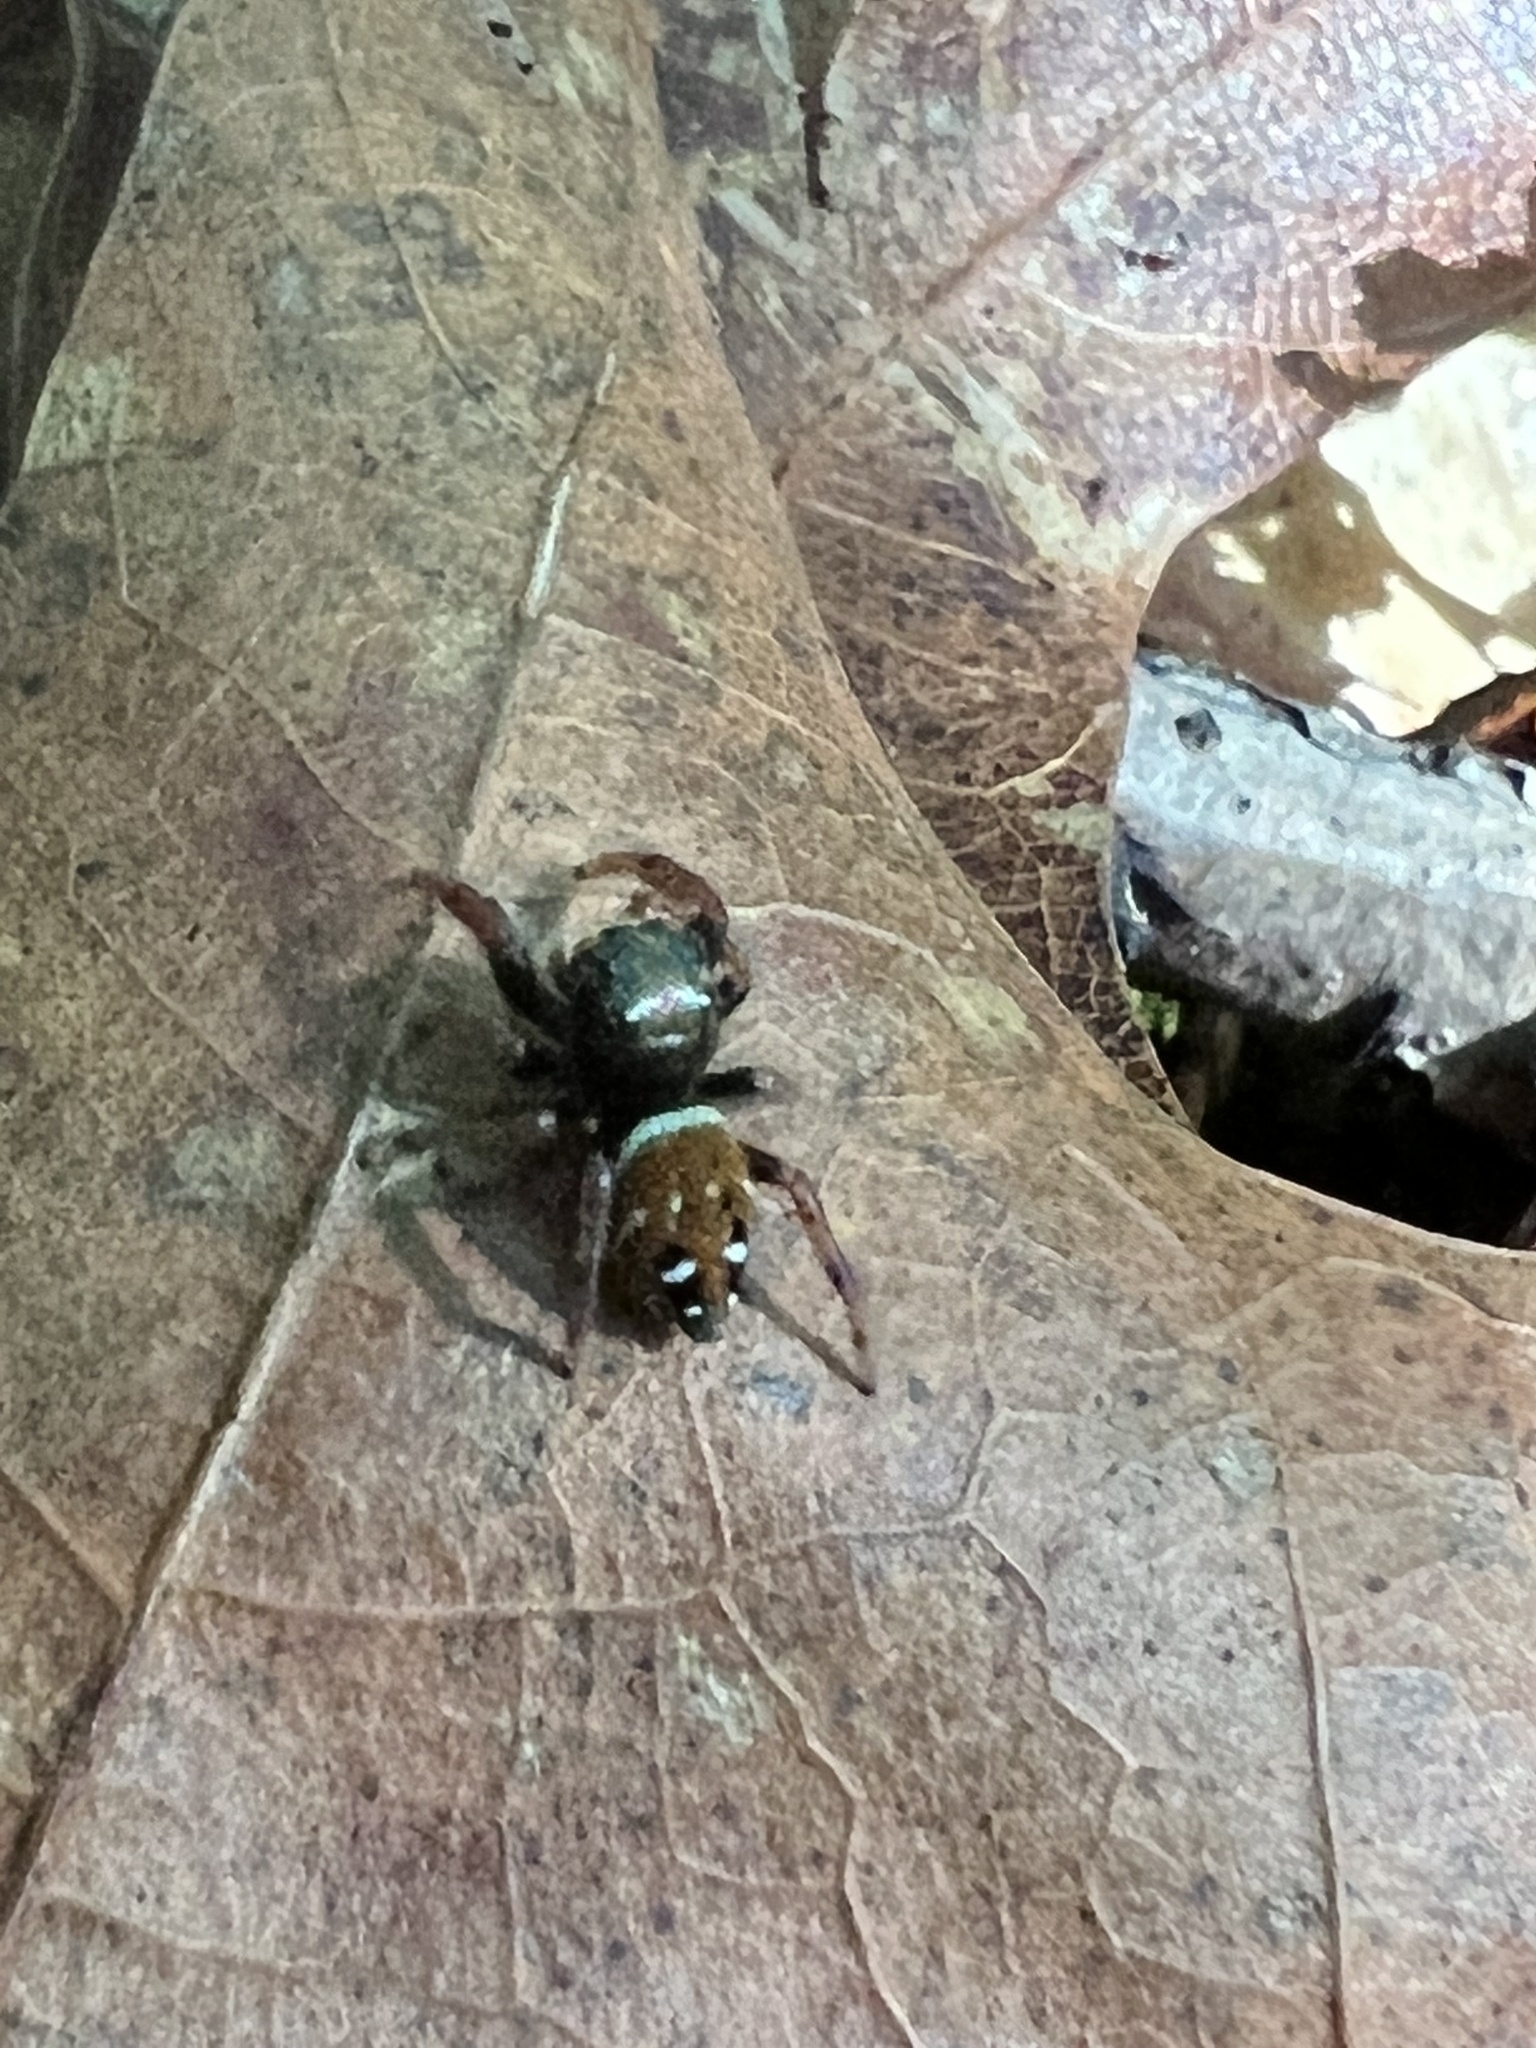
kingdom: Animalia
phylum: Arthropoda
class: Arachnida
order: Araneae
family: Salticidae
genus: Phidippus
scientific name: Phidippus whitmani
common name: Whitman's jumping spider
